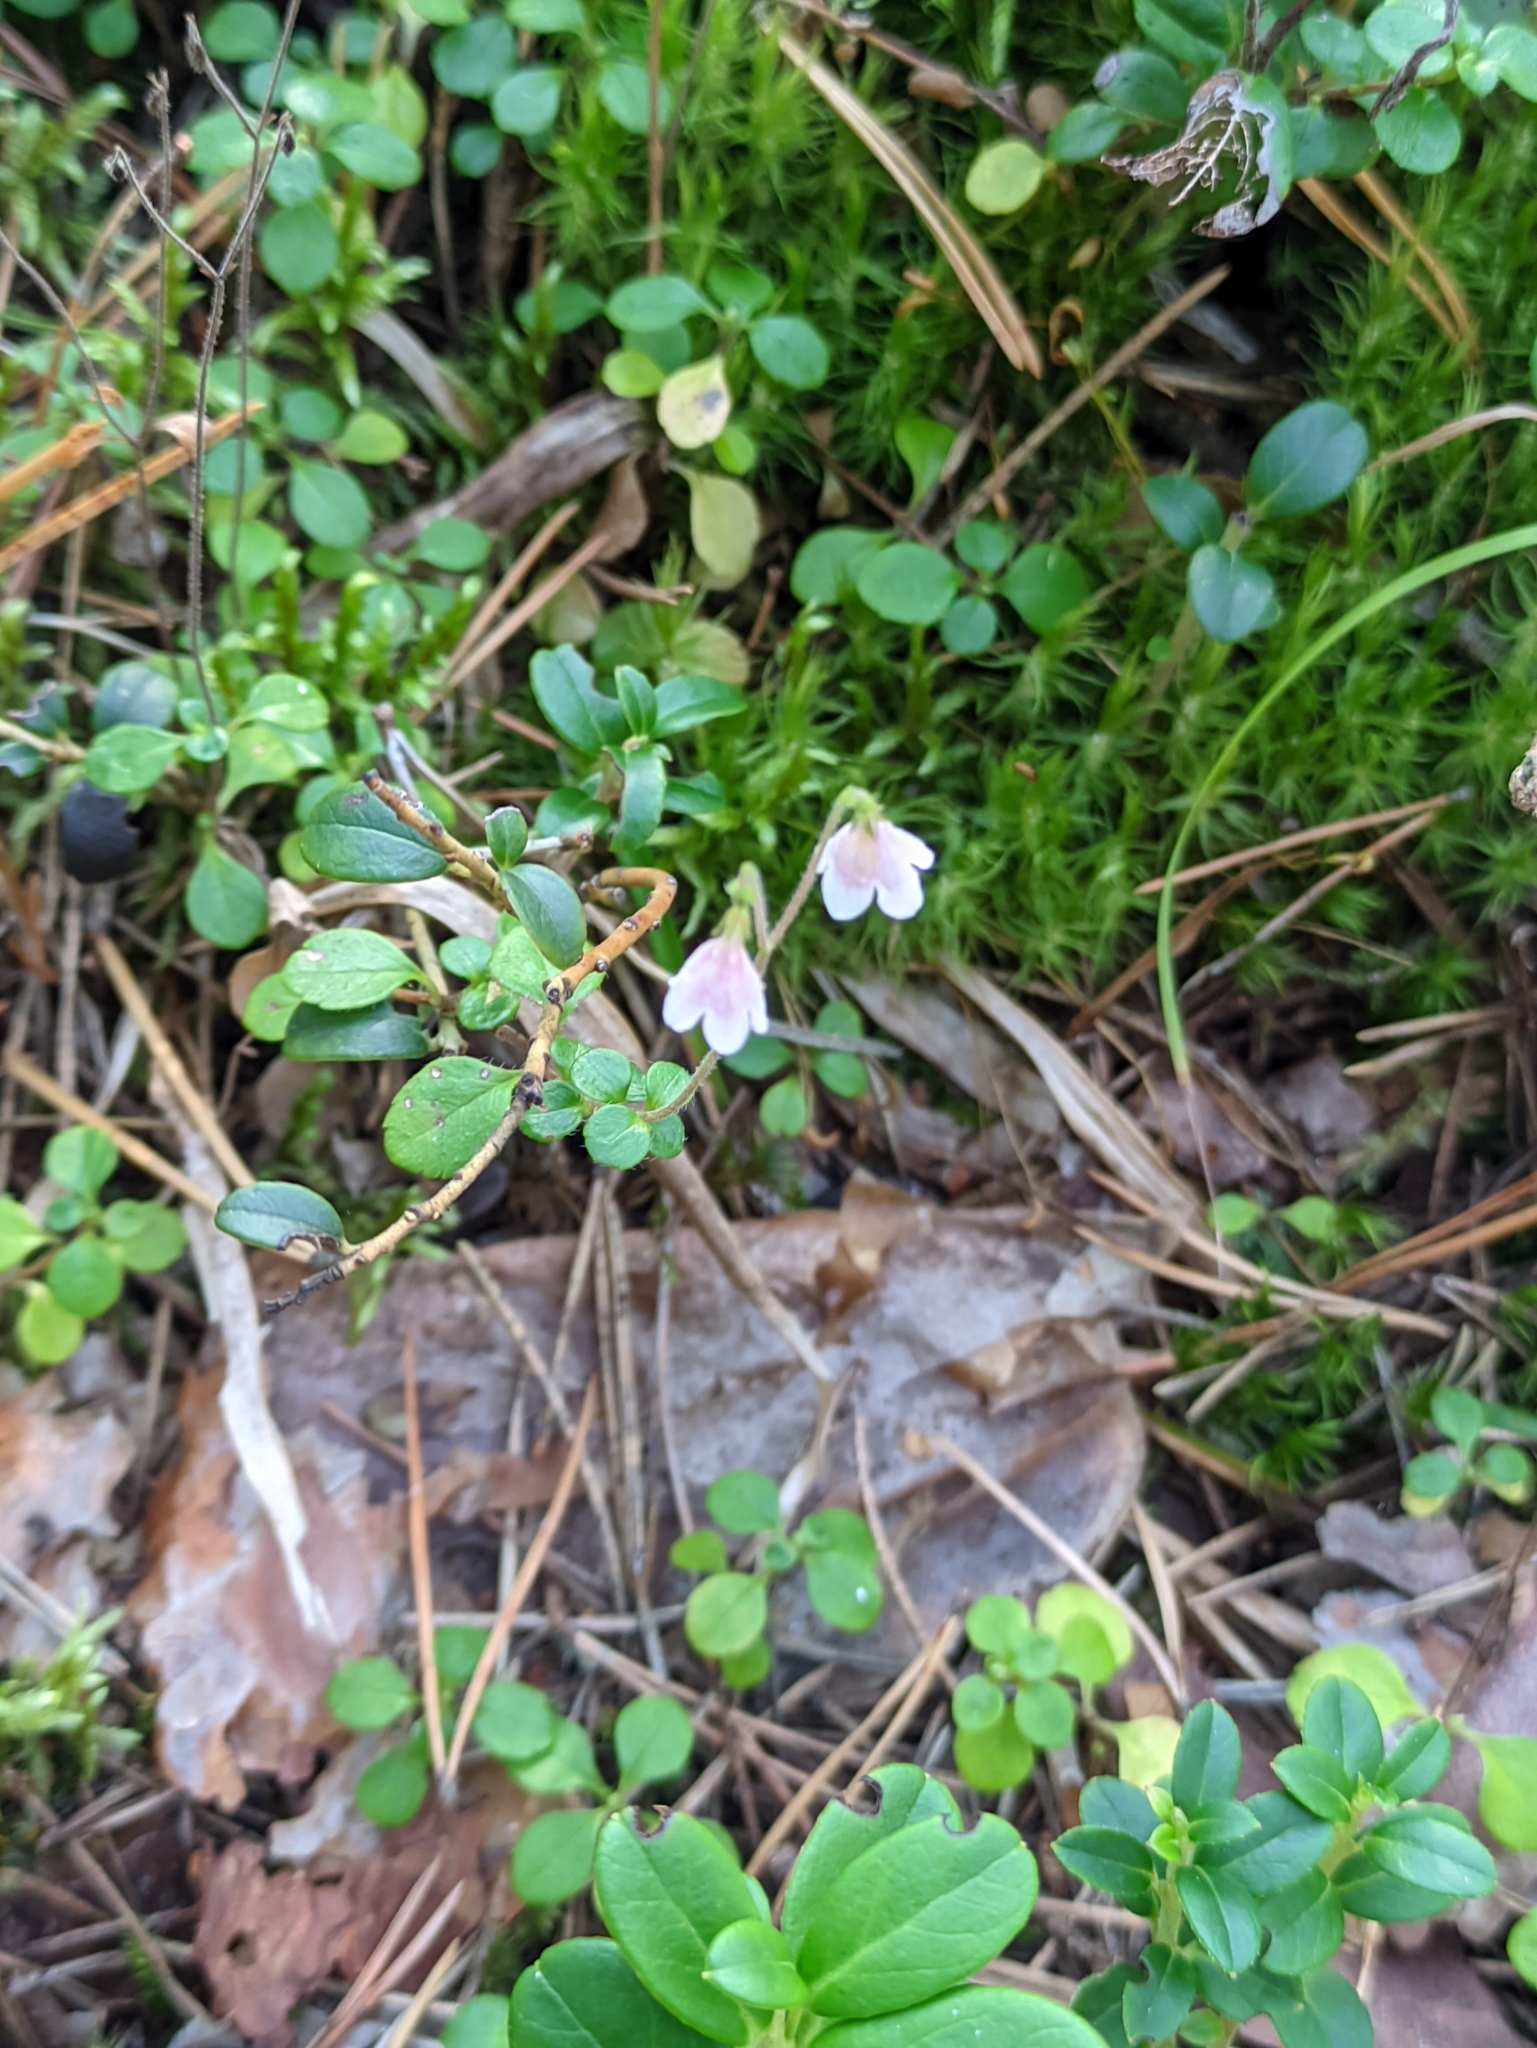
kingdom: Plantae
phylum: Tracheophyta
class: Magnoliopsida
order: Dipsacales
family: Caprifoliaceae
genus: Linnaea
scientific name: Linnaea borealis
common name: Twinflower
